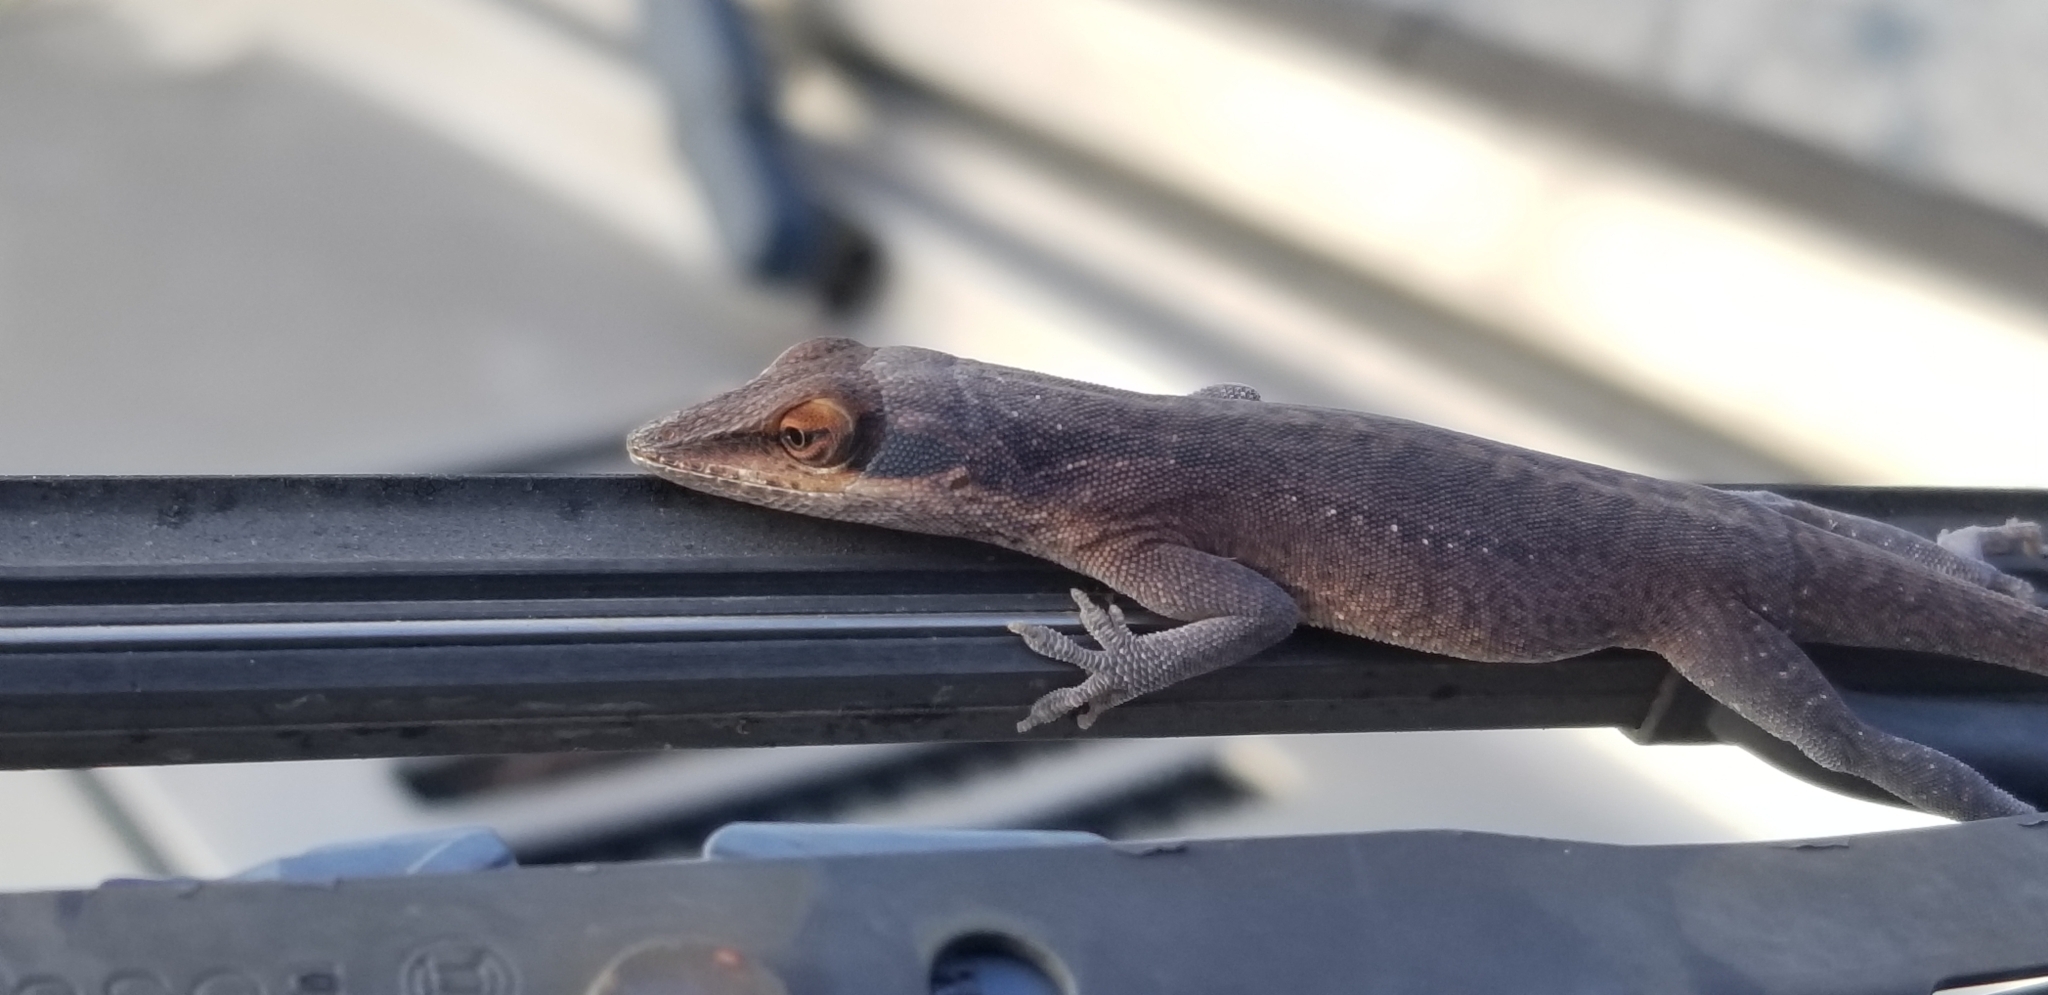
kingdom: Animalia
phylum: Chordata
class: Squamata
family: Dactyloidae
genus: Anolis
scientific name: Anolis carolinensis
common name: Green anole
